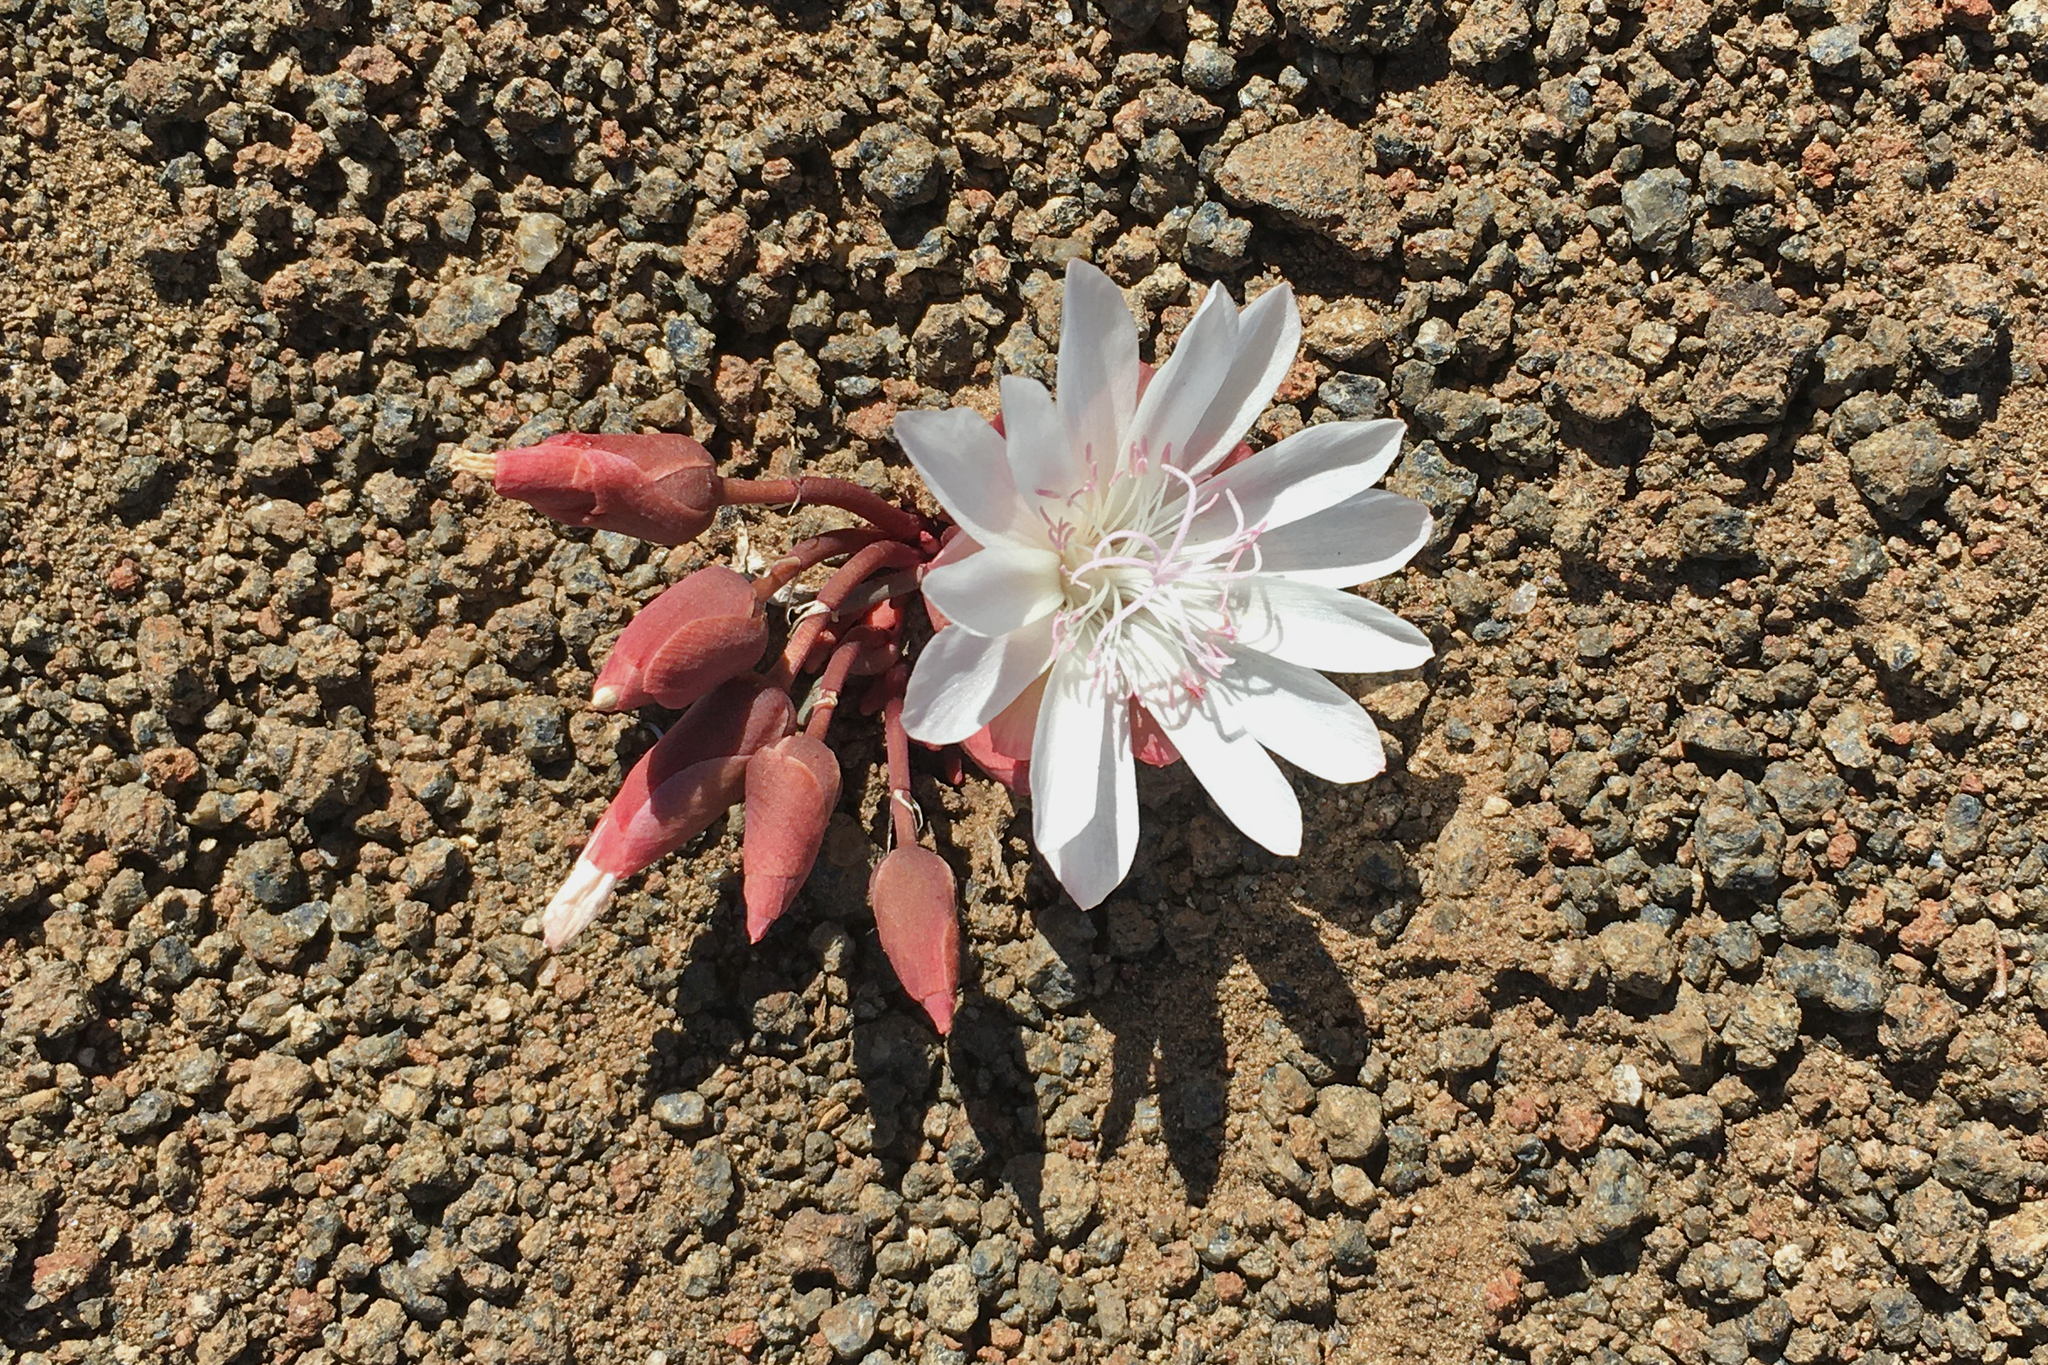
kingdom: Plantae
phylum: Tracheophyta
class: Magnoliopsida
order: Caryophyllales
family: Montiaceae
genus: Lewisia
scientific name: Lewisia rediviva
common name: Bitter-root
